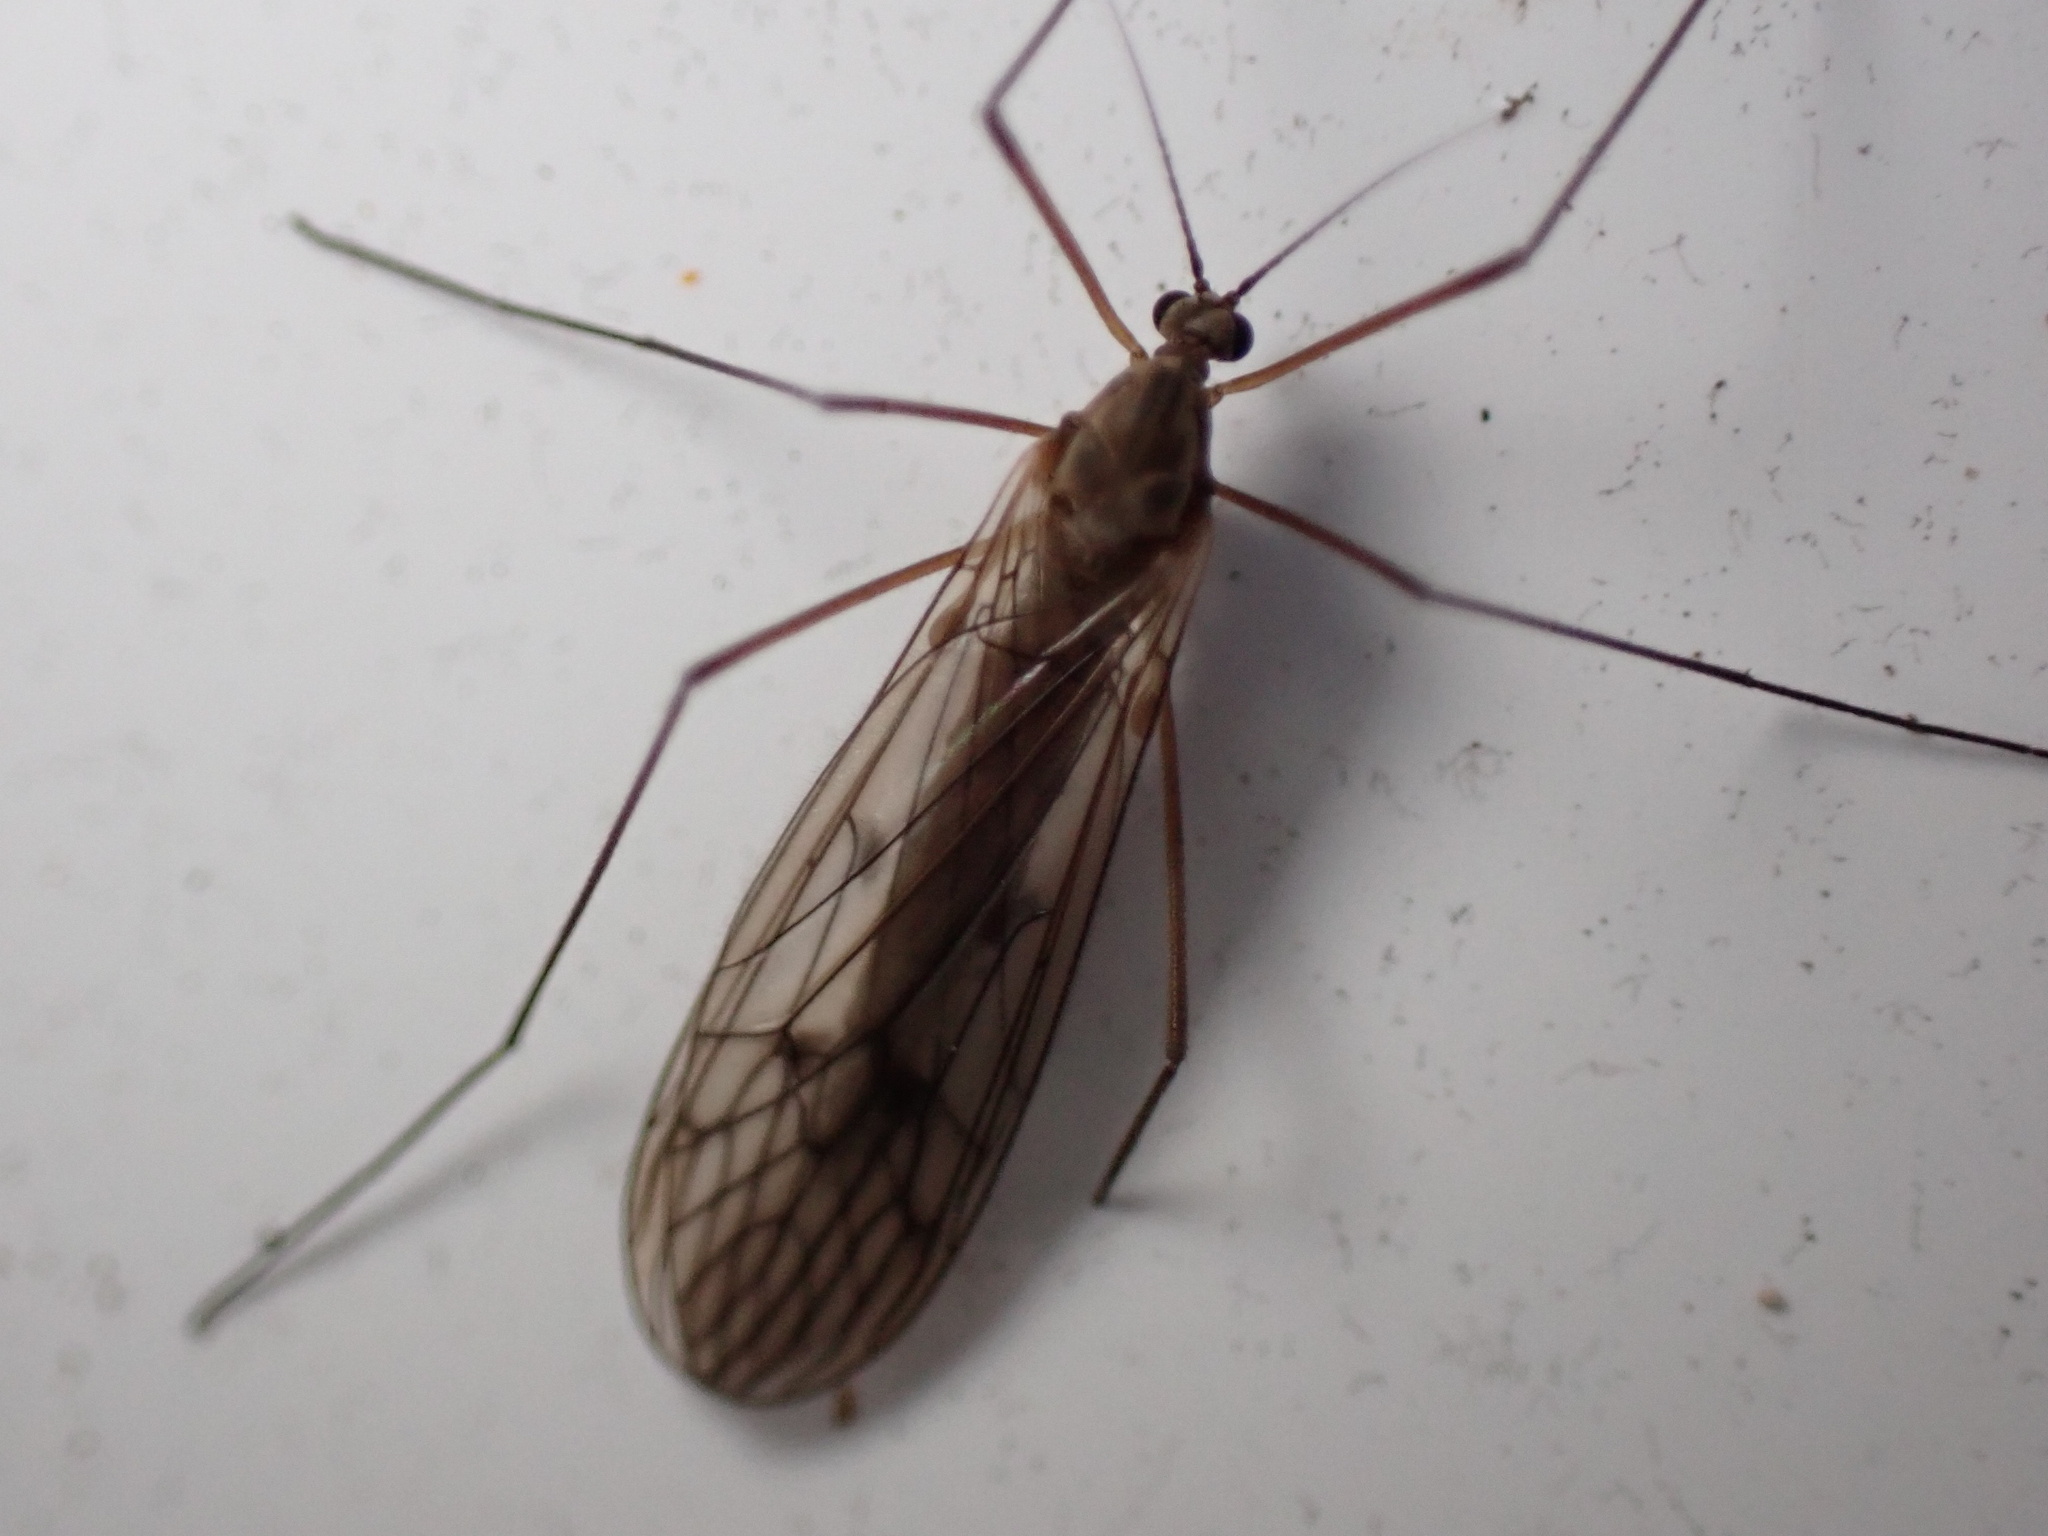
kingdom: Animalia
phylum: Arthropoda
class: Insecta
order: Diptera
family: Trichoceridae
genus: Trichocera
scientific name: Trichocera bimacula
